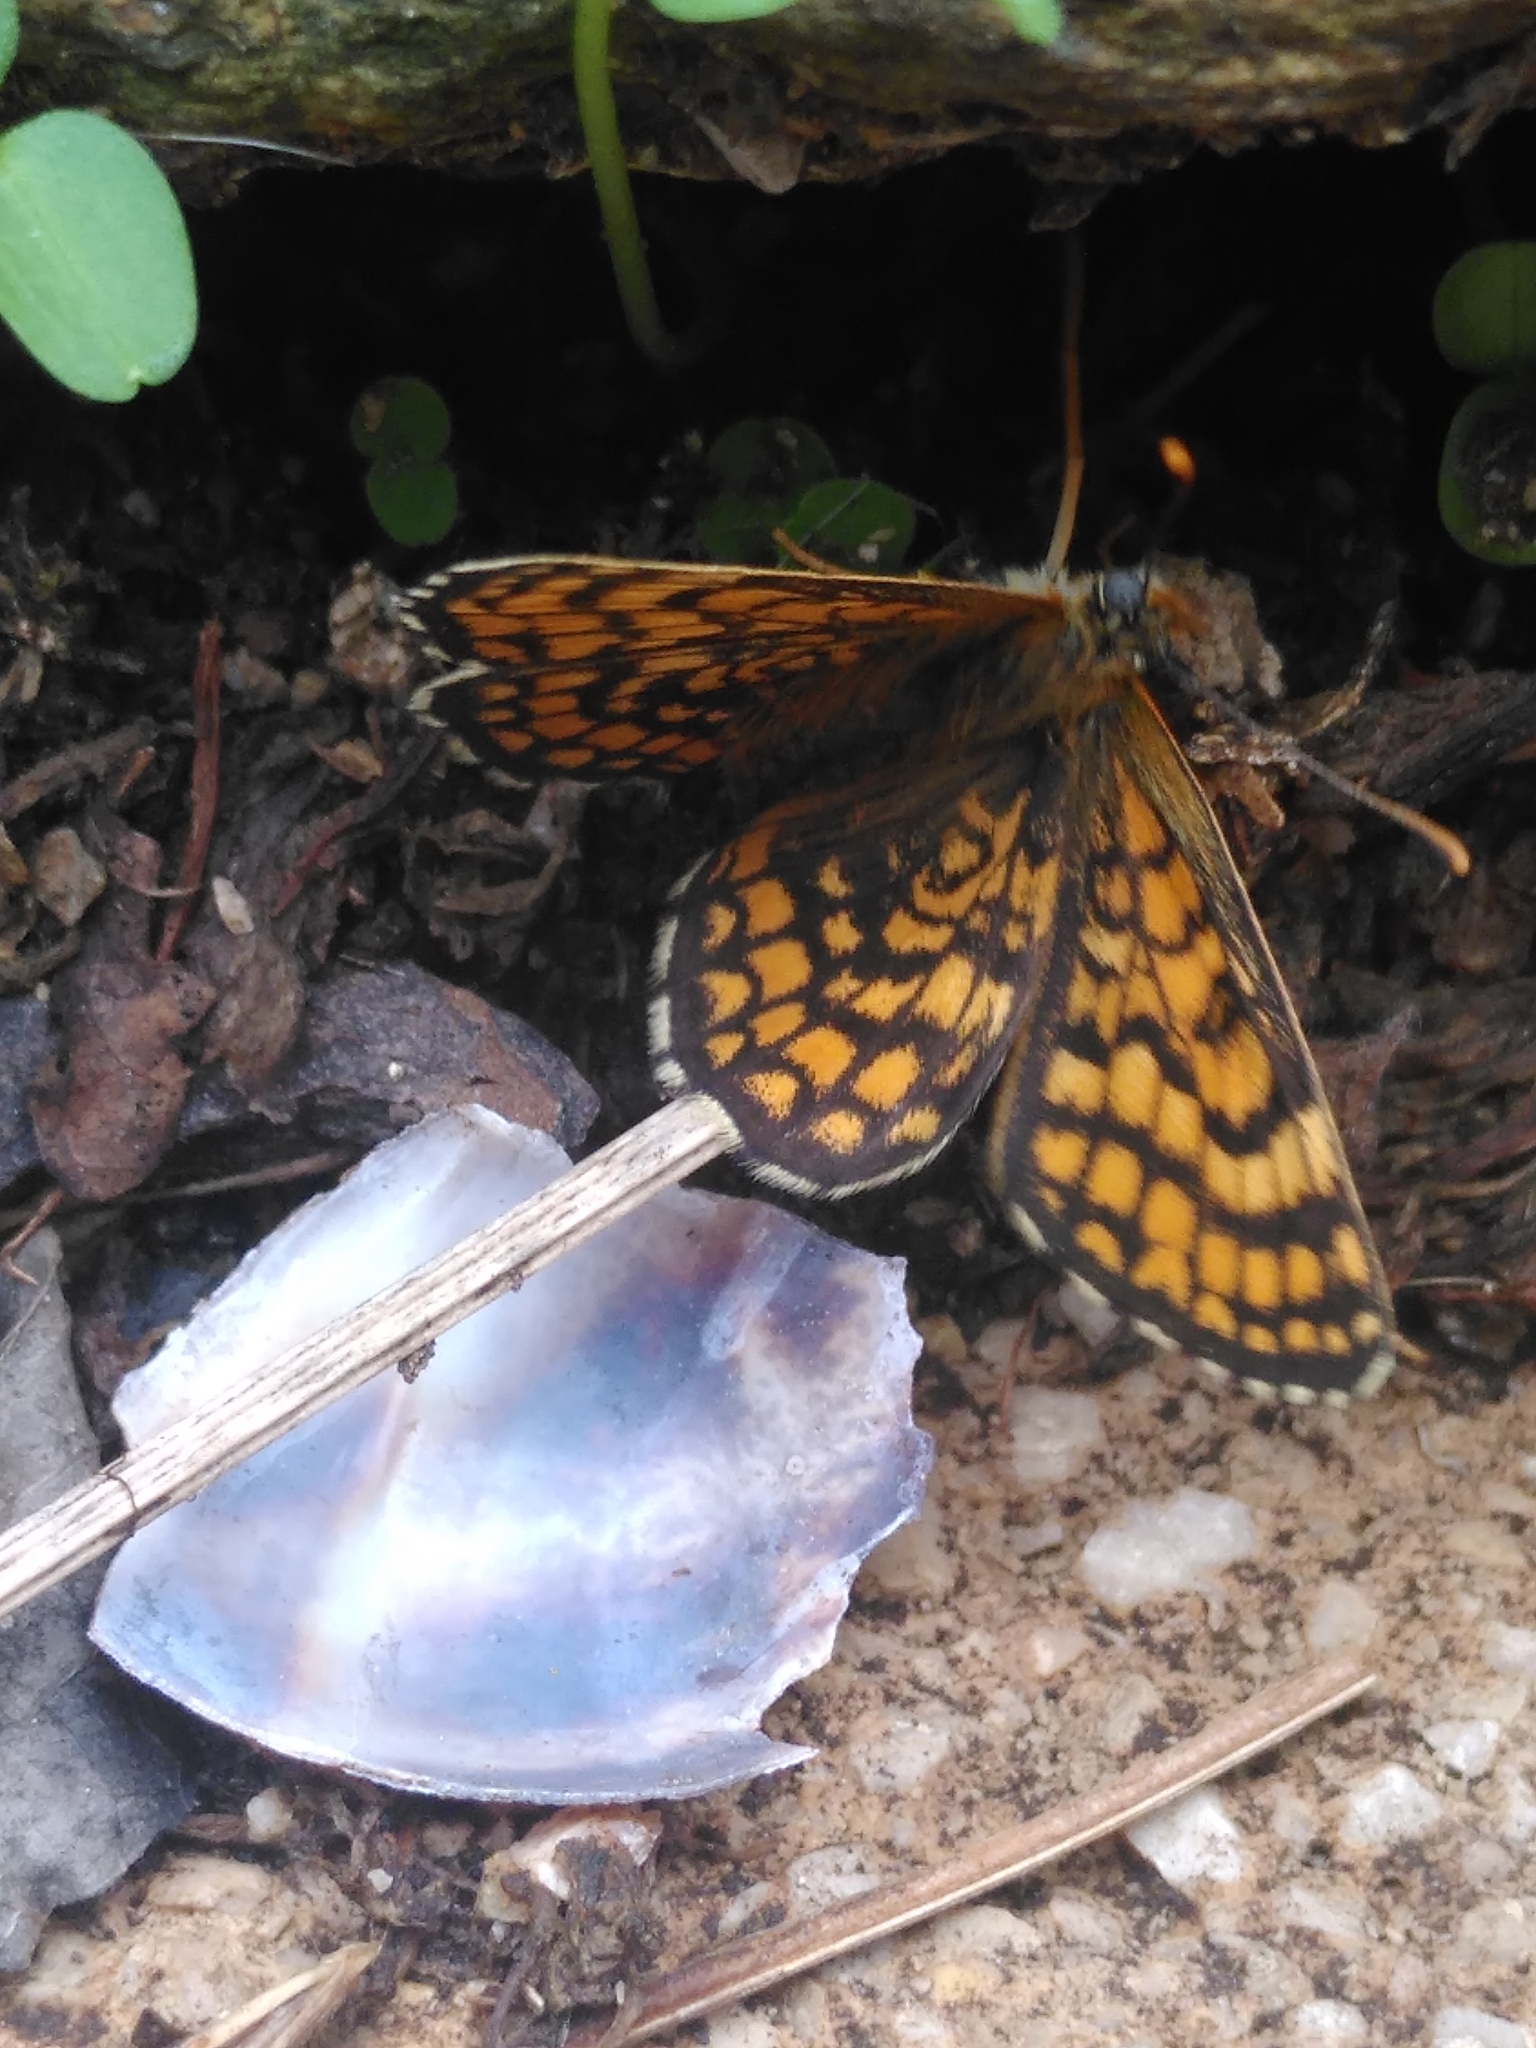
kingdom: Animalia
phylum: Arthropoda
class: Insecta
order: Lepidoptera
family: Nymphalidae
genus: Melitaea
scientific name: Melitaea deione
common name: Provençal fritillary
